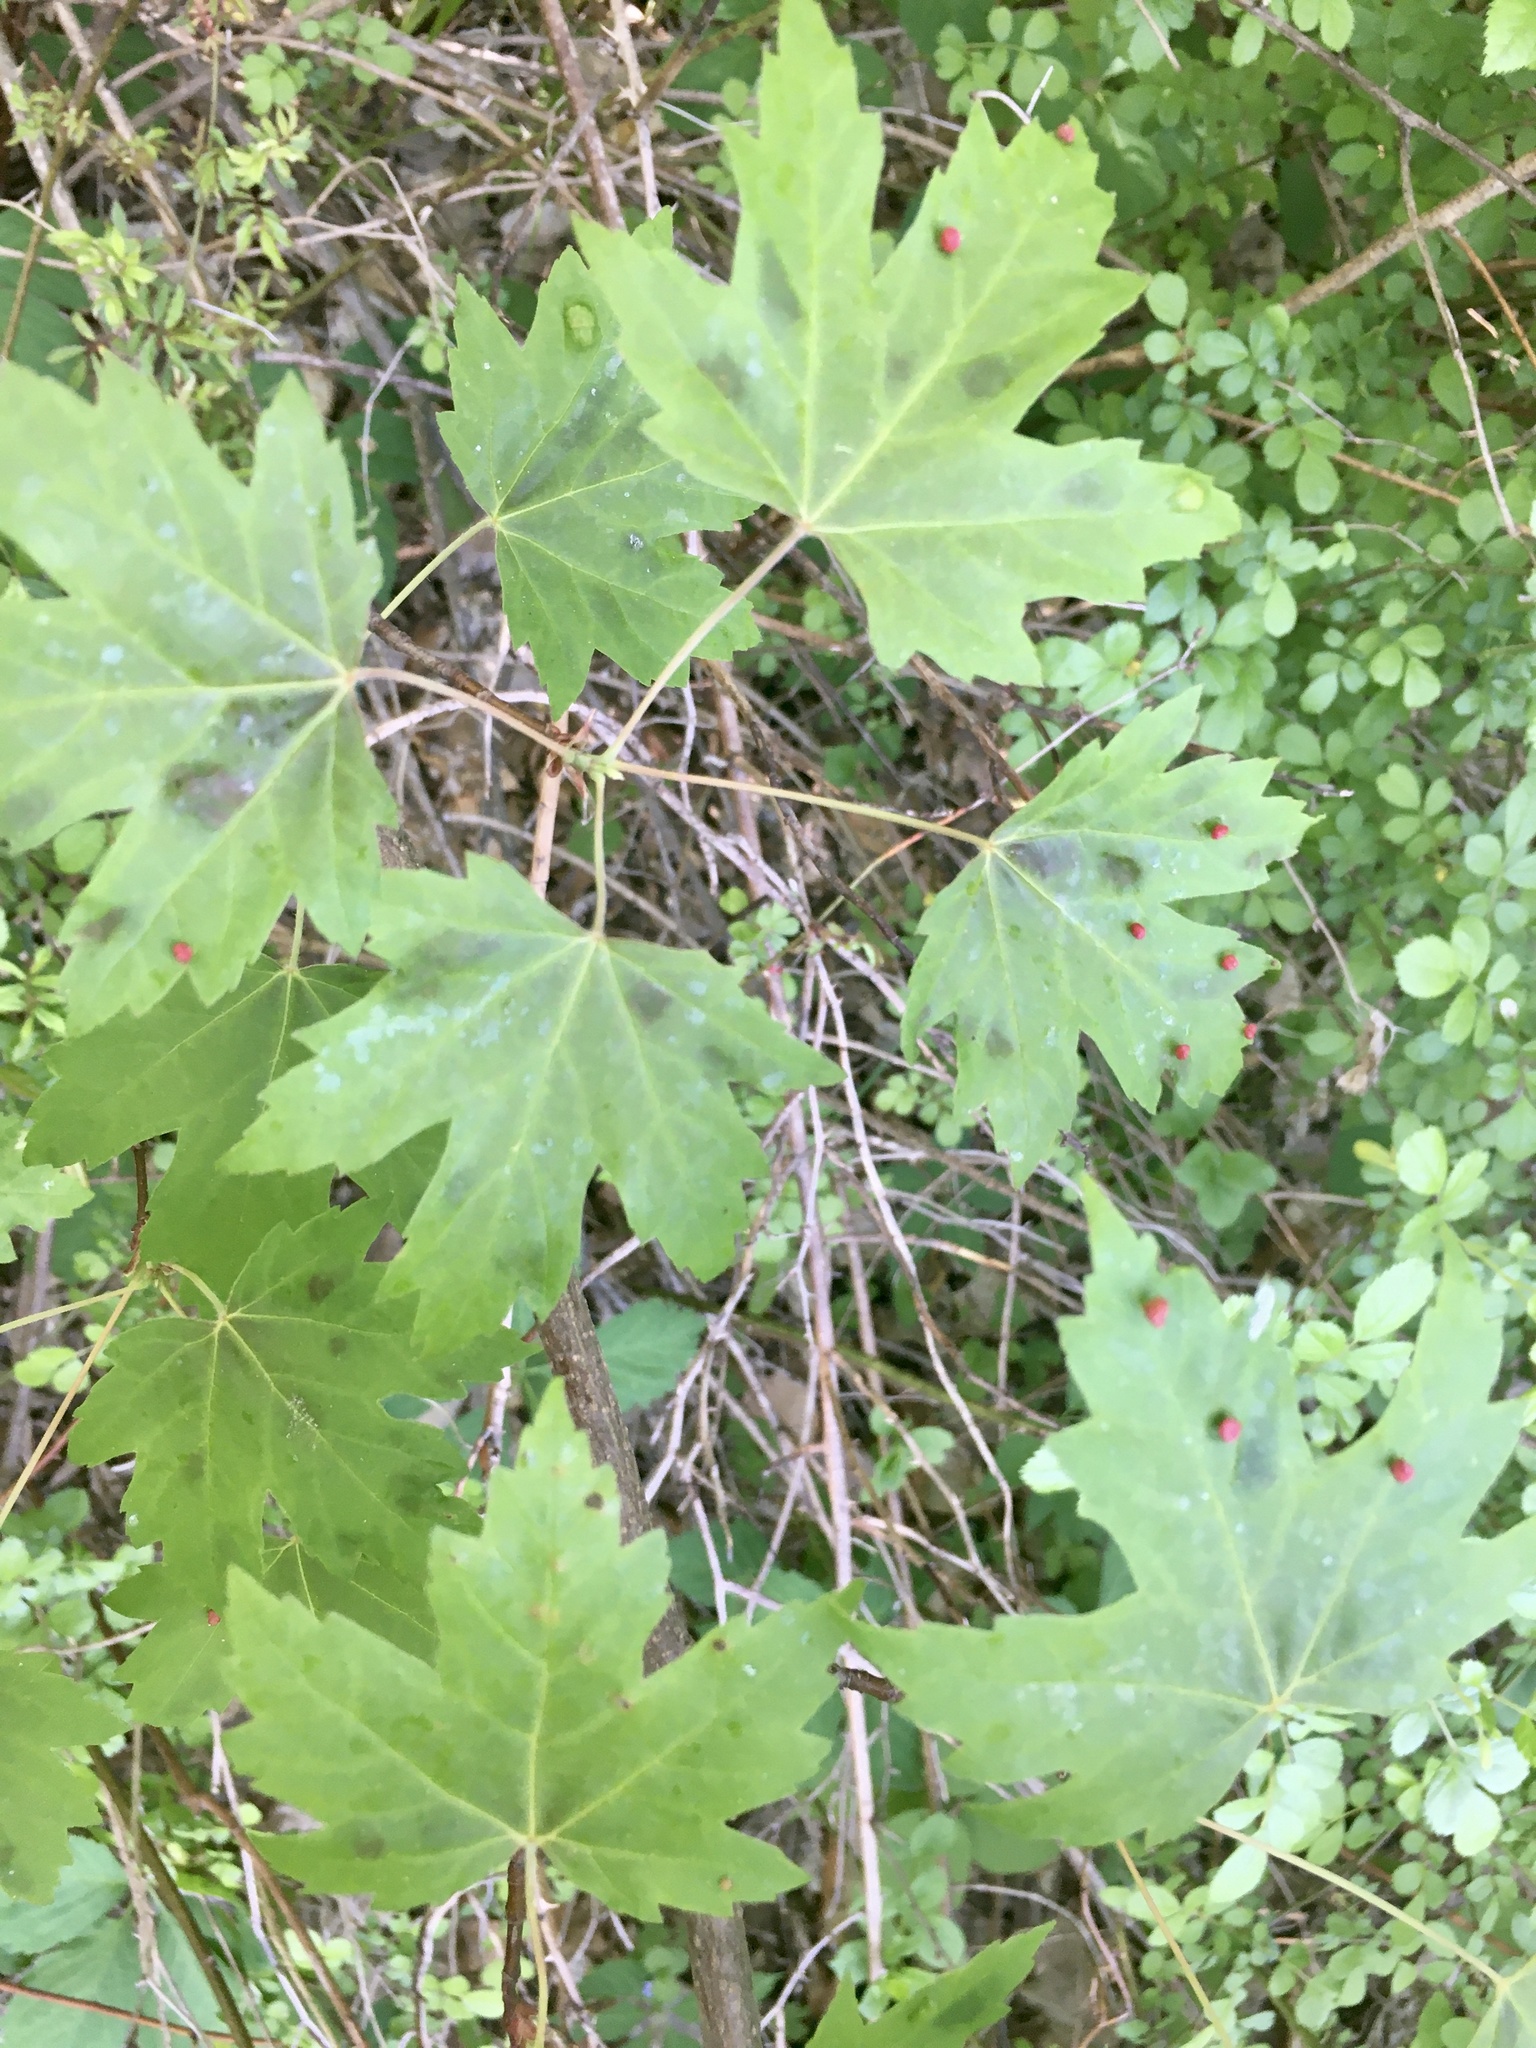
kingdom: Plantae
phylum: Tracheophyta
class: Magnoliopsida
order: Sapindales
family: Sapindaceae
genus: Acer
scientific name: Acer saccharinum
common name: Silver maple
